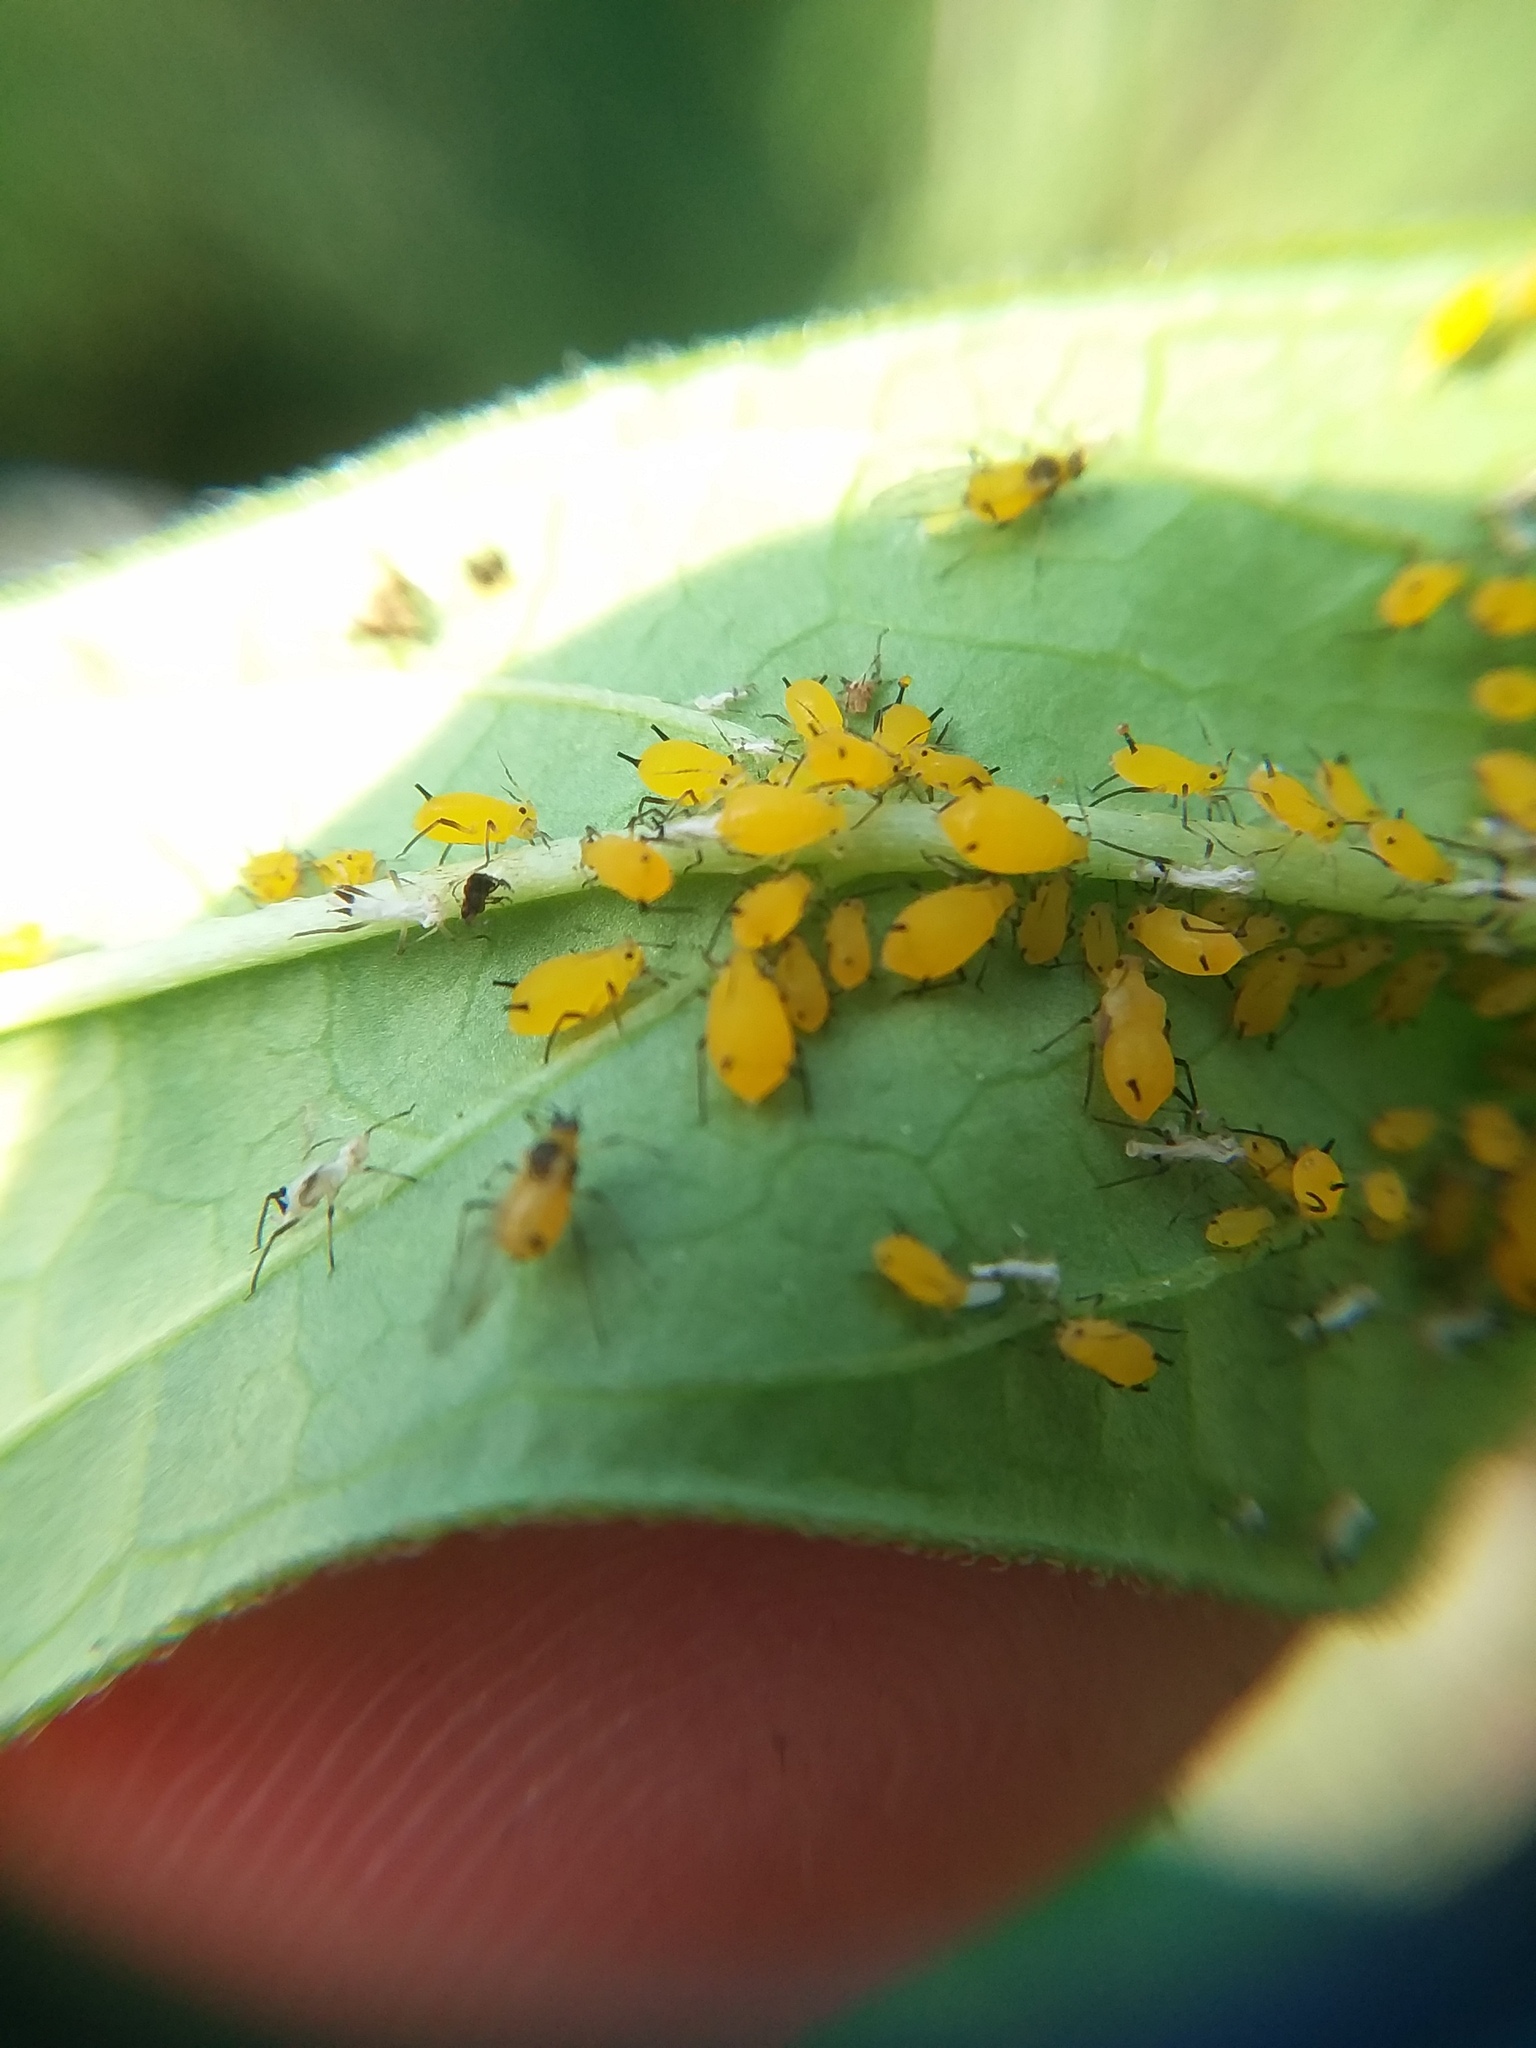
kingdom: Animalia
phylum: Arthropoda
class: Insecta
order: Hemiptera
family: Aphididae
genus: Aphis
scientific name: Aphis nerii
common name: Oleander aphid
